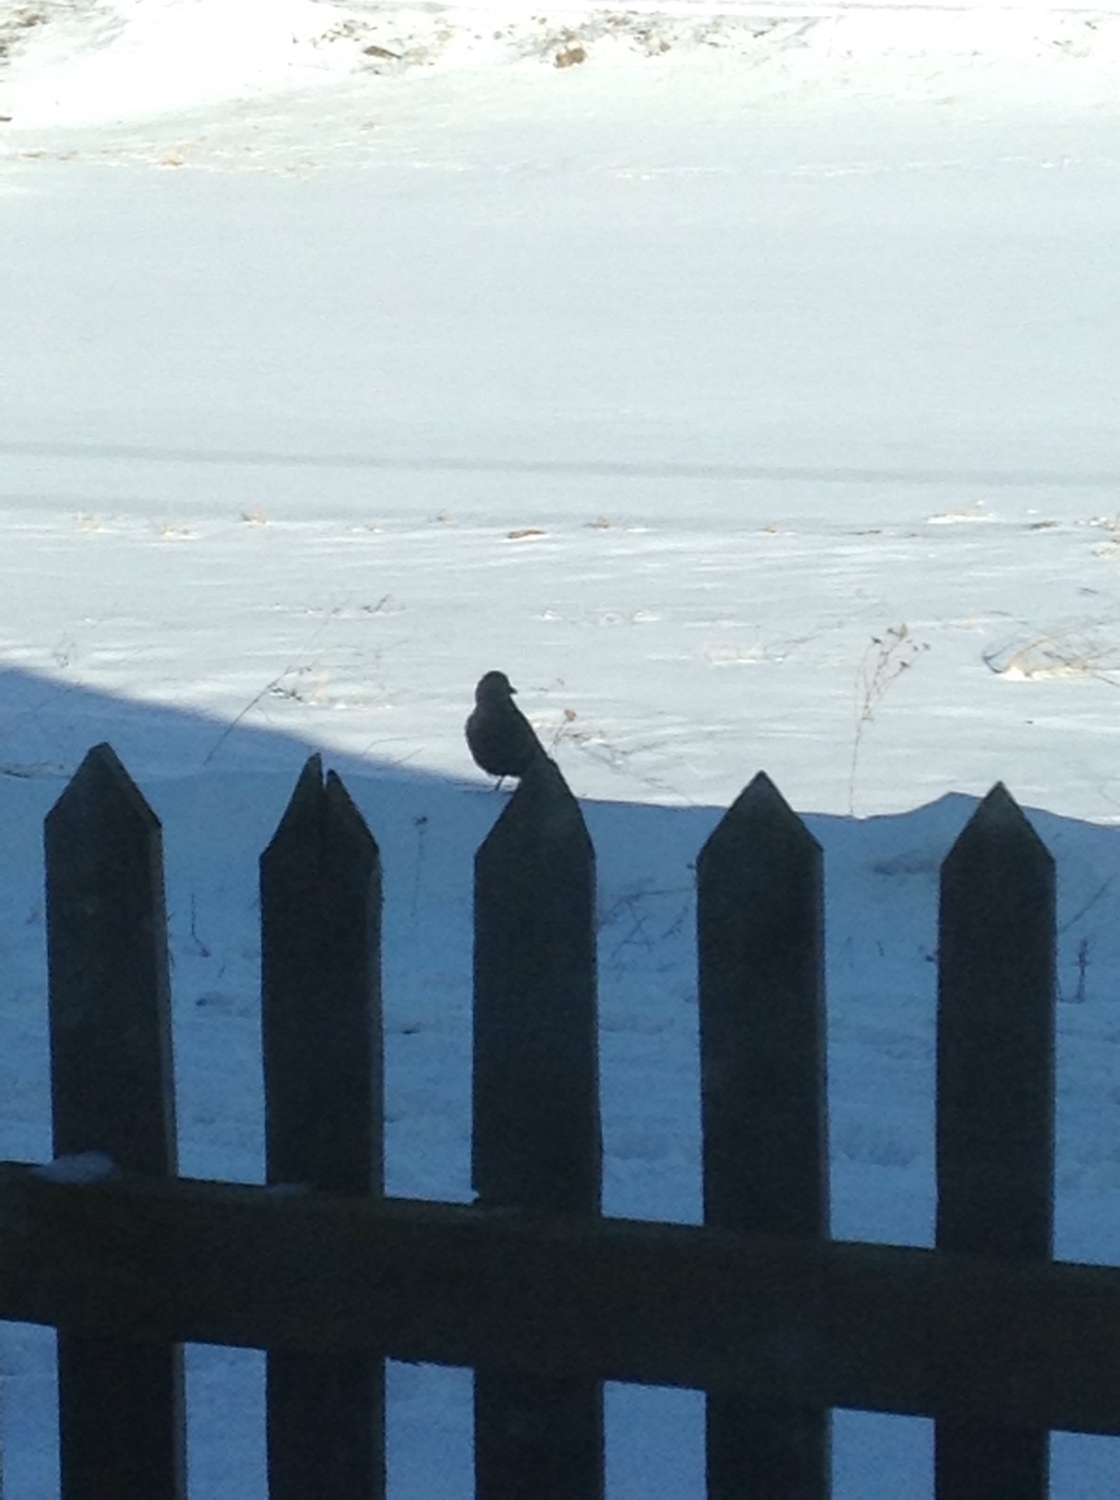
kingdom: Animalia
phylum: Chordata
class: Aves
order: Passeriformes
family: Corvidae
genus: Corvus
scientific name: Corvus corone
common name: Carrion crow
